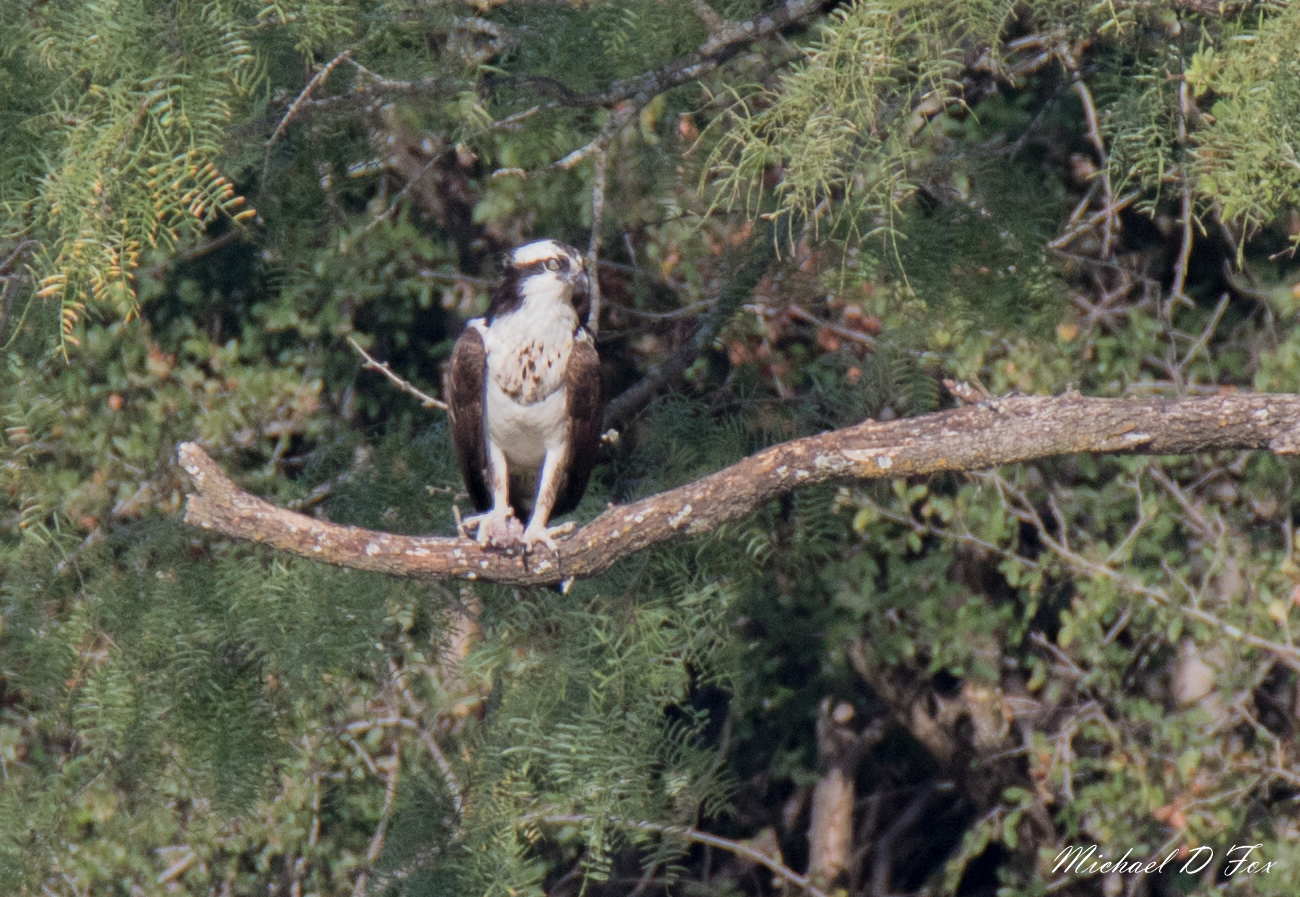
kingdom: Animalia
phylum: Chordata
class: Aves
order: Accipitriformes
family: Pandionidae
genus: Pandion
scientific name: Pandion haliaetus
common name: Osprey
